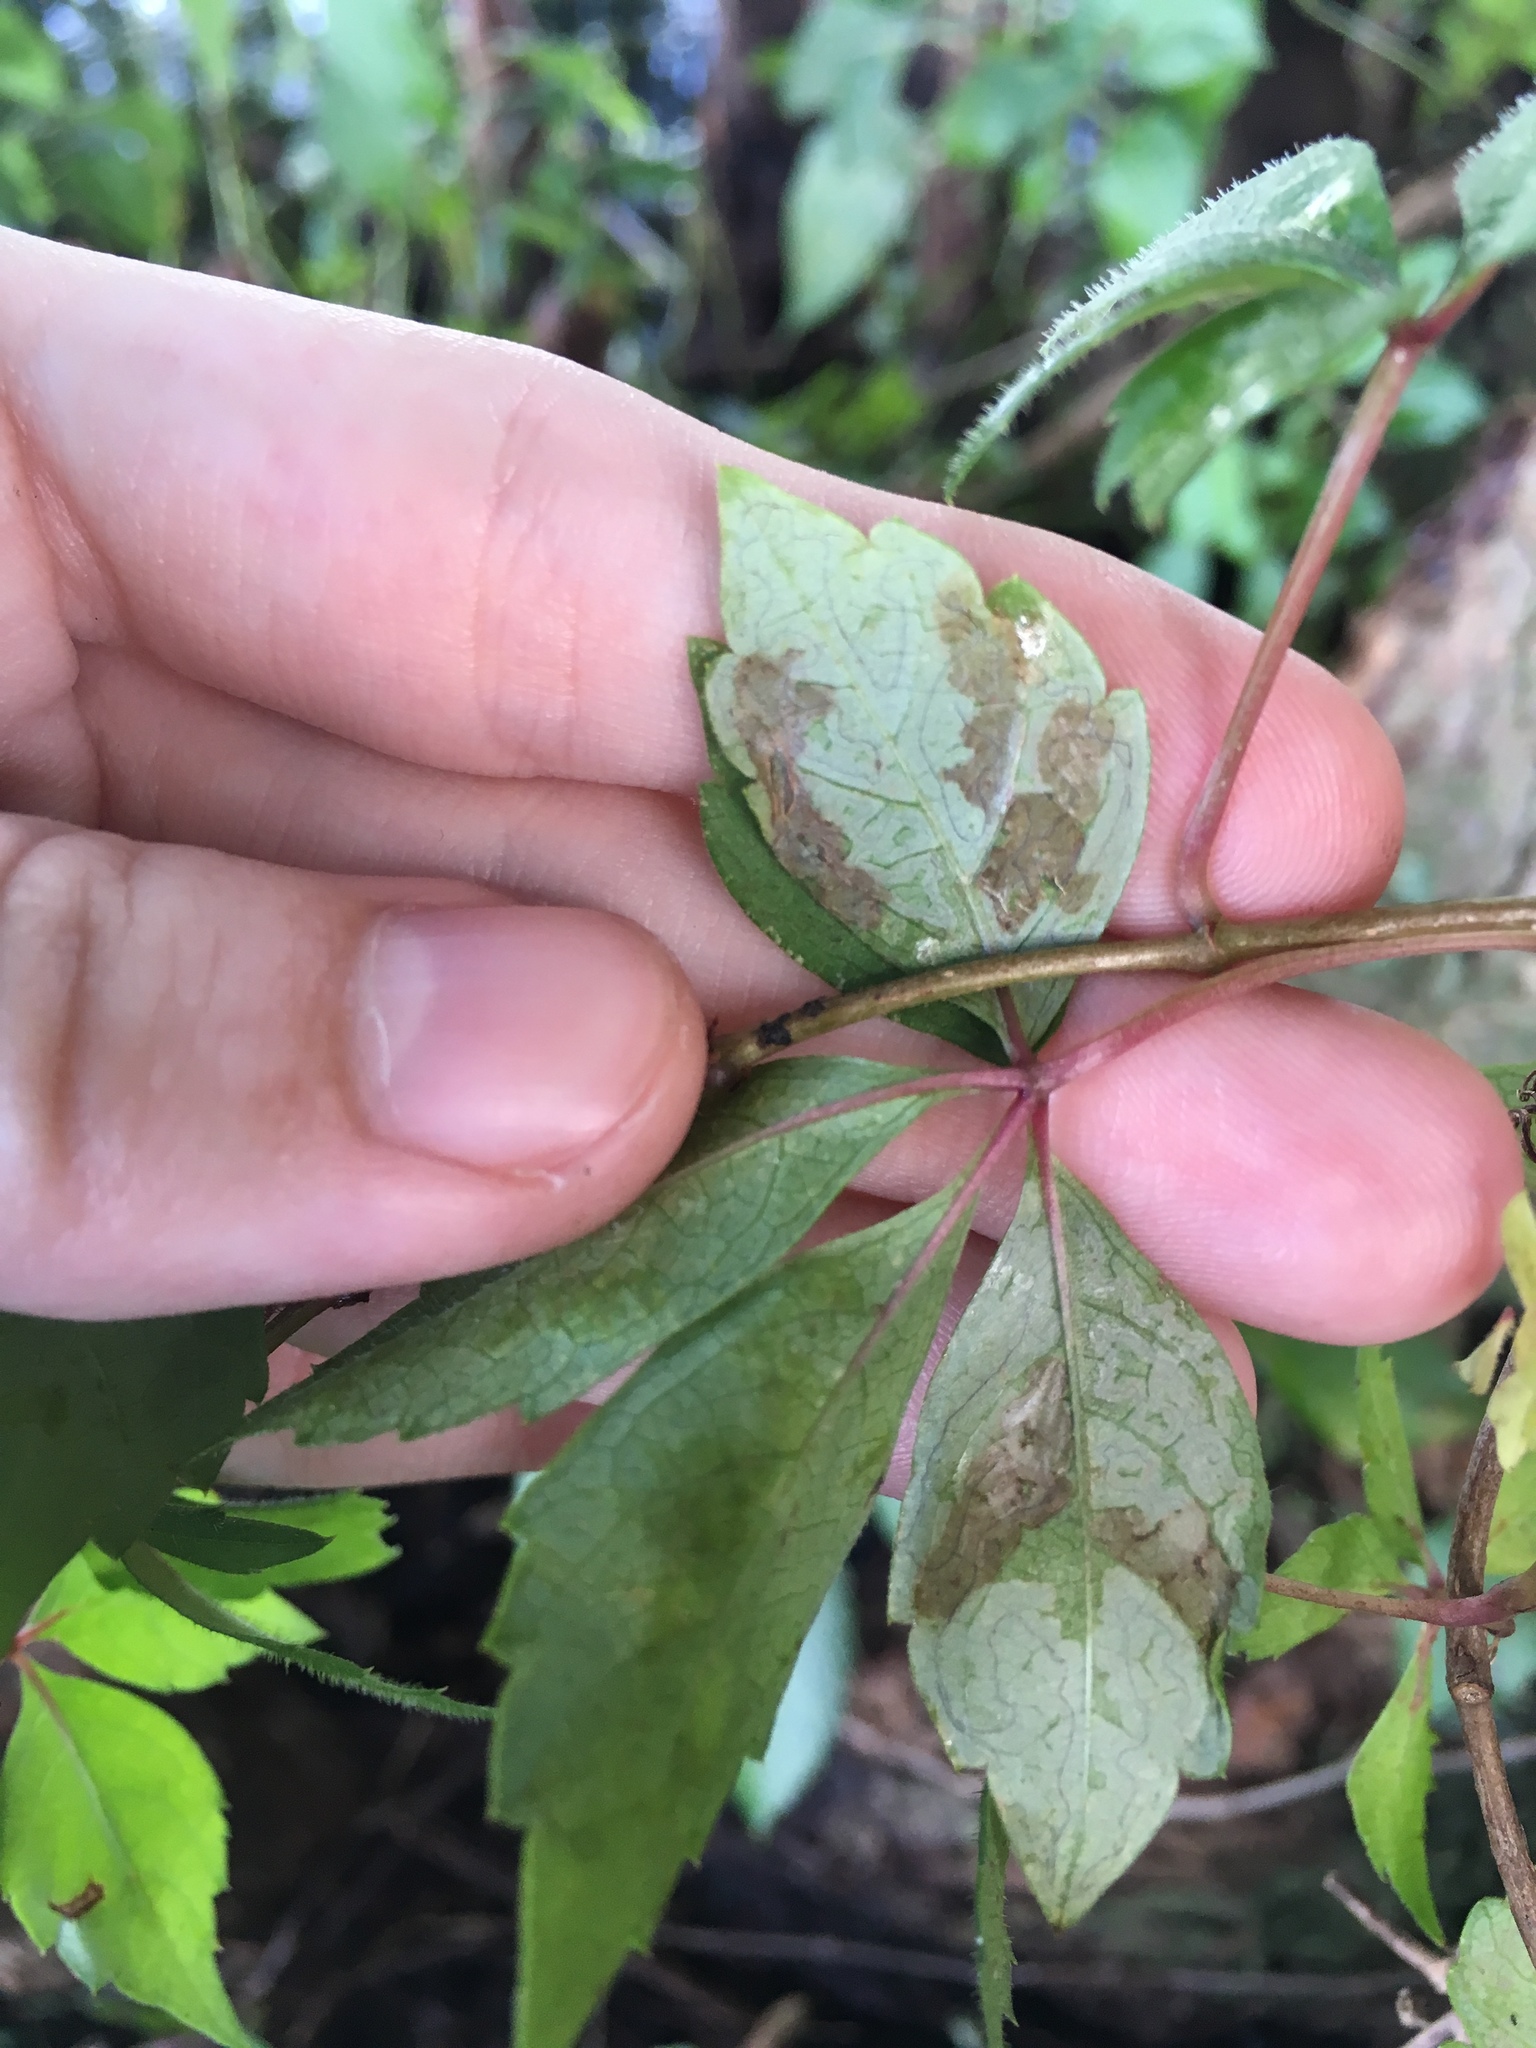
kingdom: Animalia
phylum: Arthropoda
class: Insecta
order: Lepidoptera
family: Gracillariidae
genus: Phyllocnistis
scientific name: Phyllocnistis ampelopsiella
